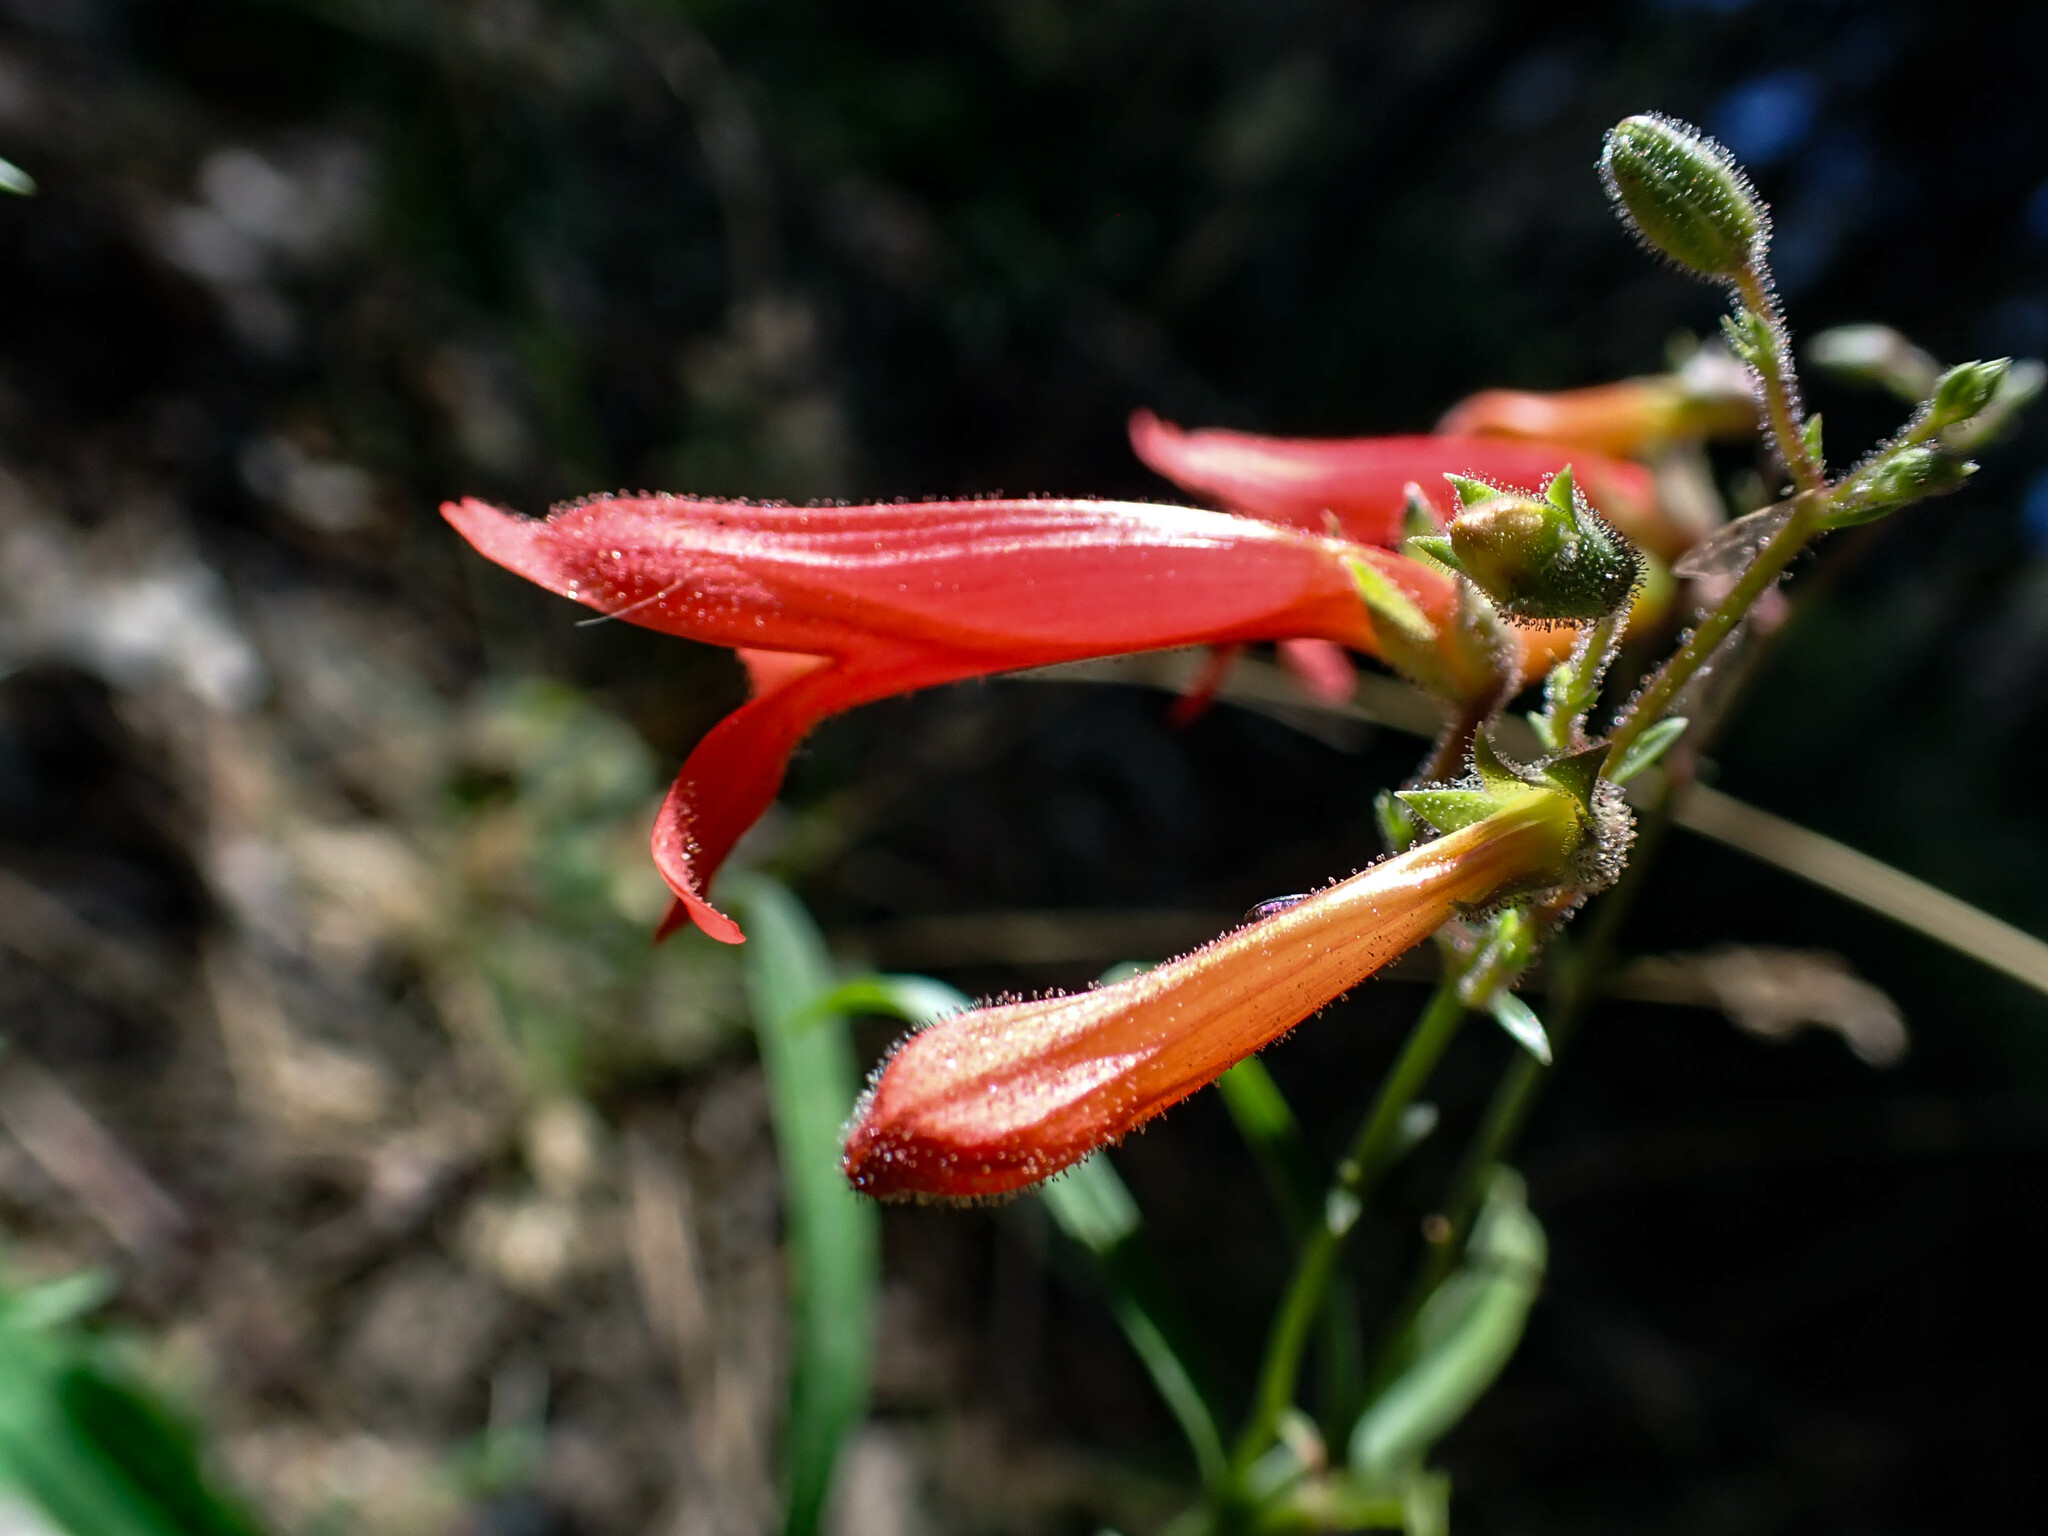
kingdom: Plantae
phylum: Tracheophyta
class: Magnoliopsida
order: Lamiales
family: Plantaginaceae
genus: Keckiella
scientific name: Keckiella ternata
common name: Scarlet keckiella
